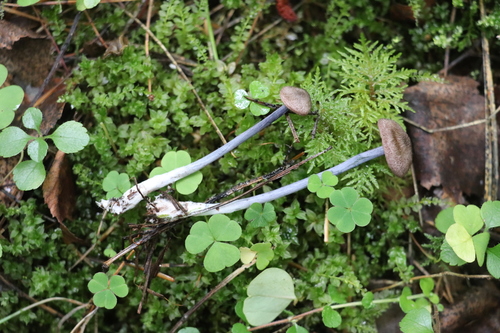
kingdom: Fungi
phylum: Basidiomycota
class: Agaricomycetes
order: Agaricales
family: Entolomataceae
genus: Entoloma
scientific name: Entoloma
